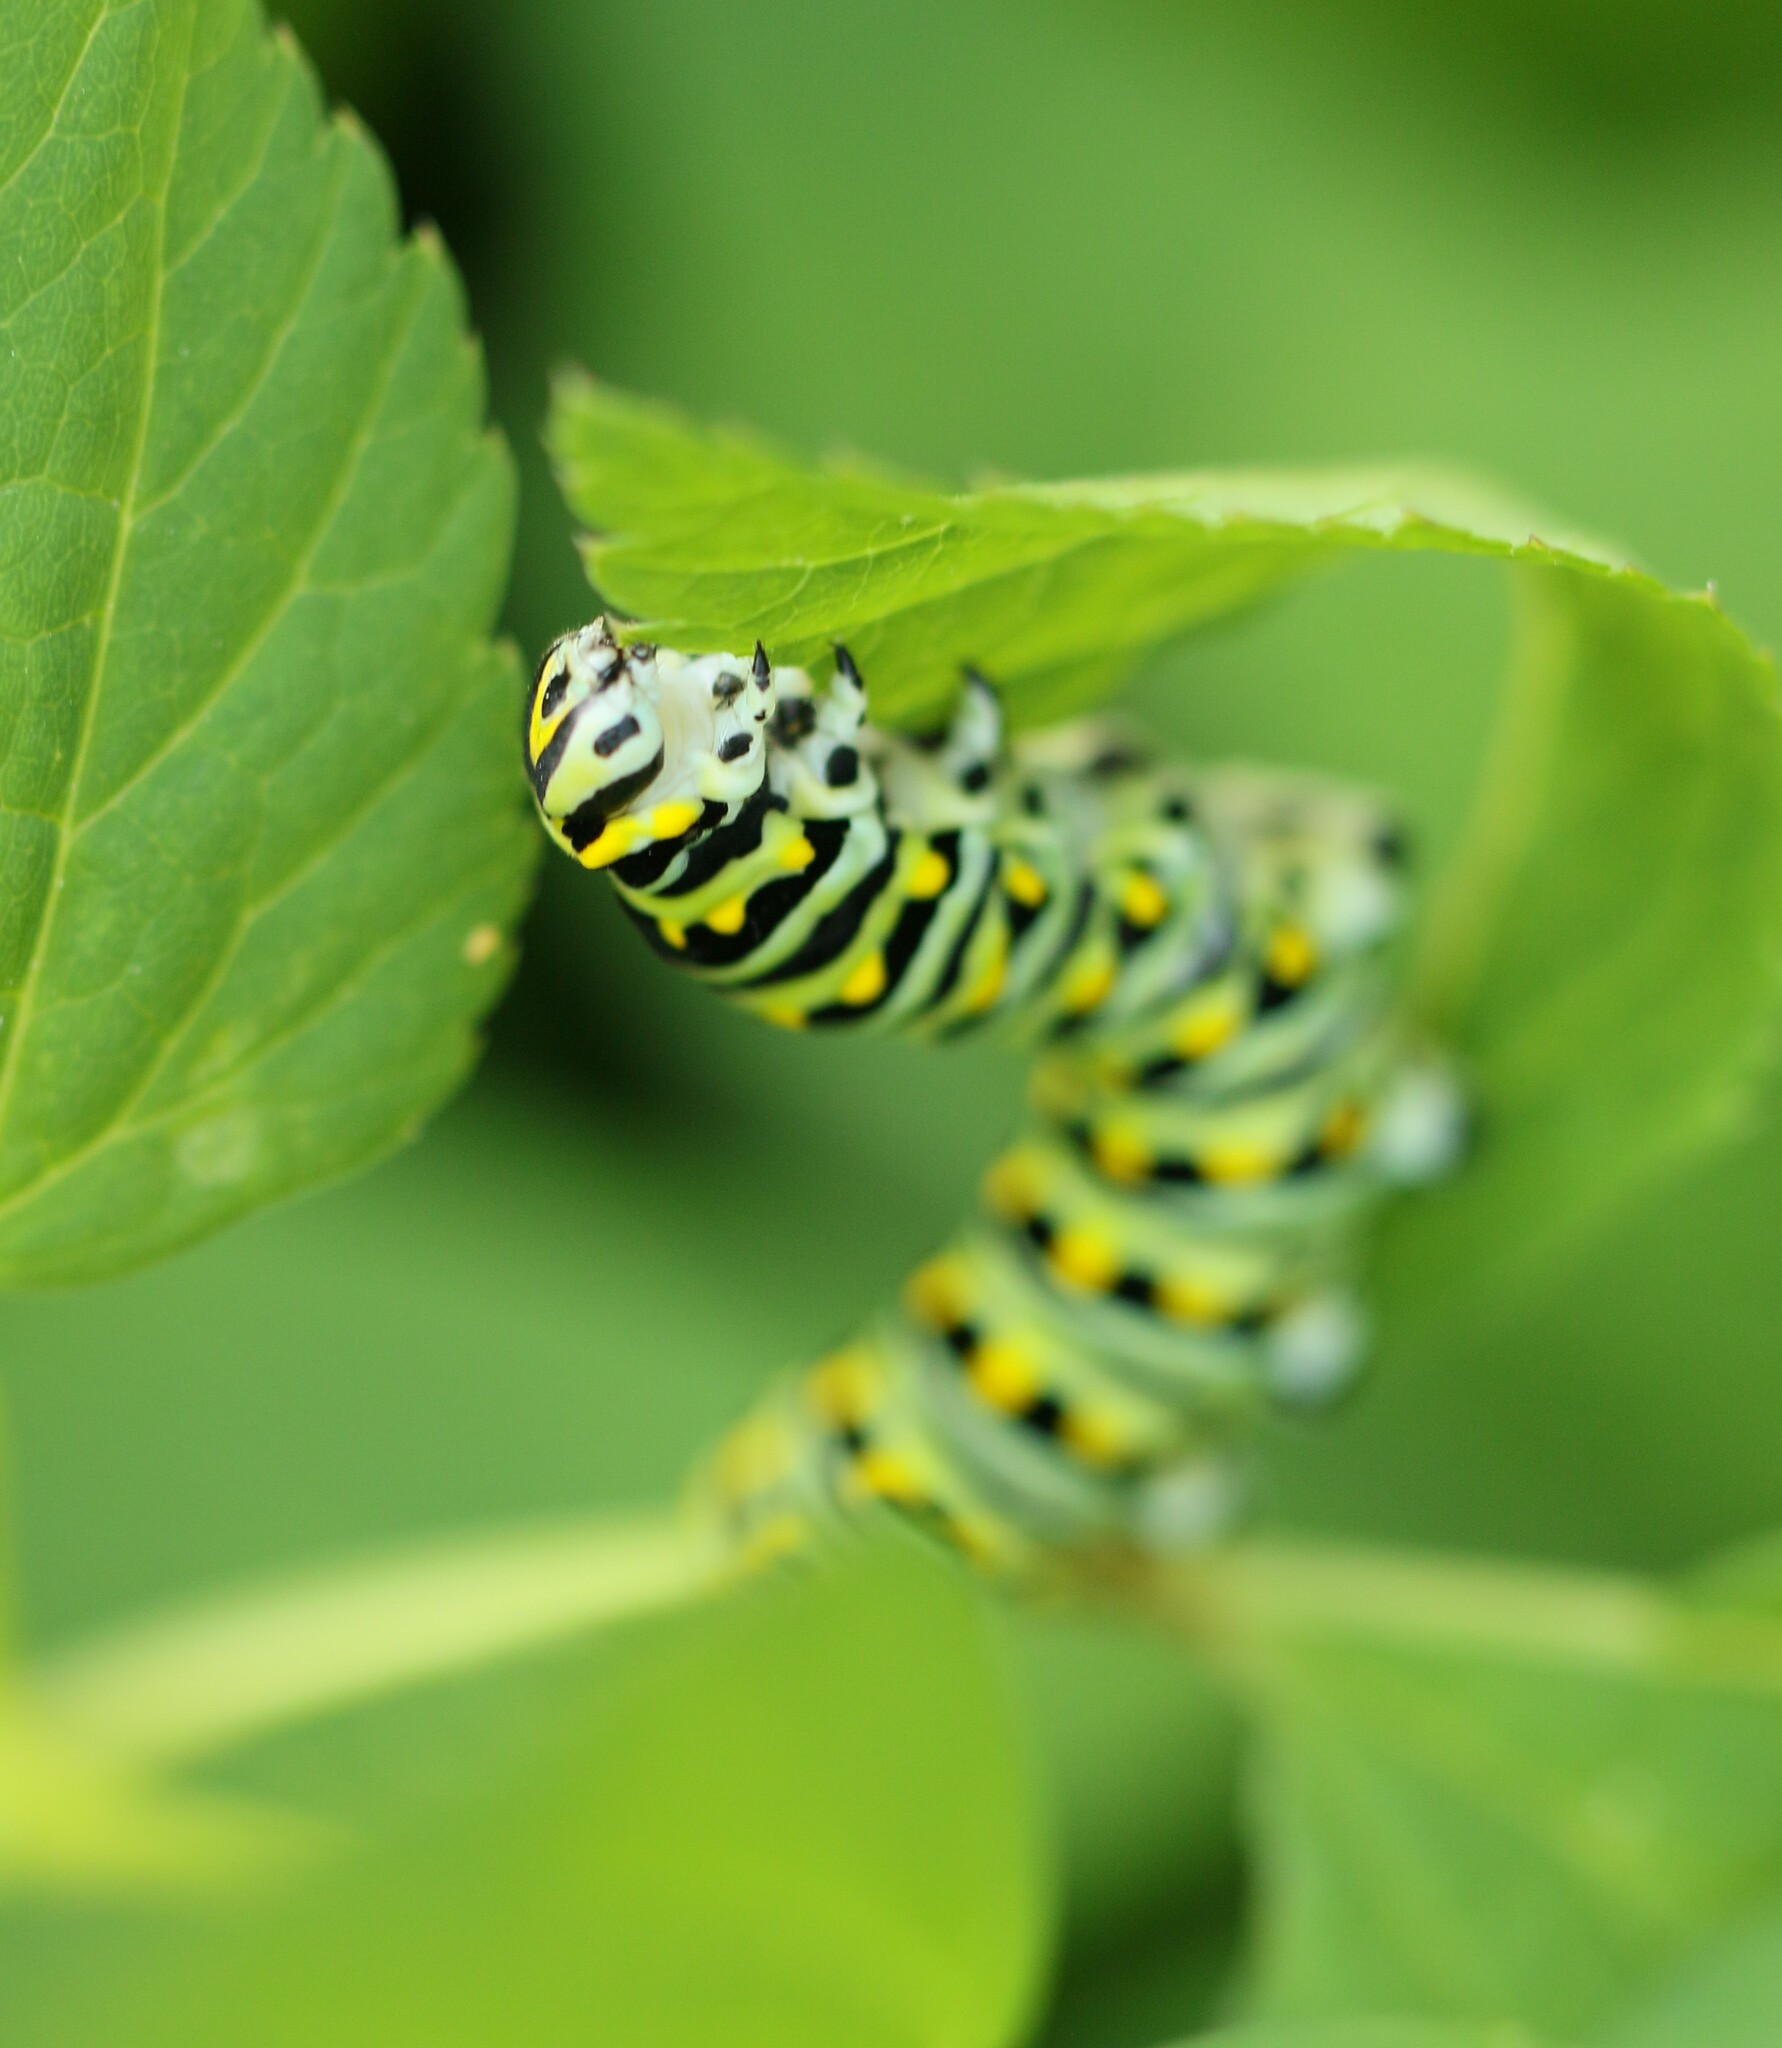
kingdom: Animalia
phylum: Arthropoda
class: Insecta
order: Lepidoptera
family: Papilionidae
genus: Papilio
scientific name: Papilio polyxenes
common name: Black swallowtail
